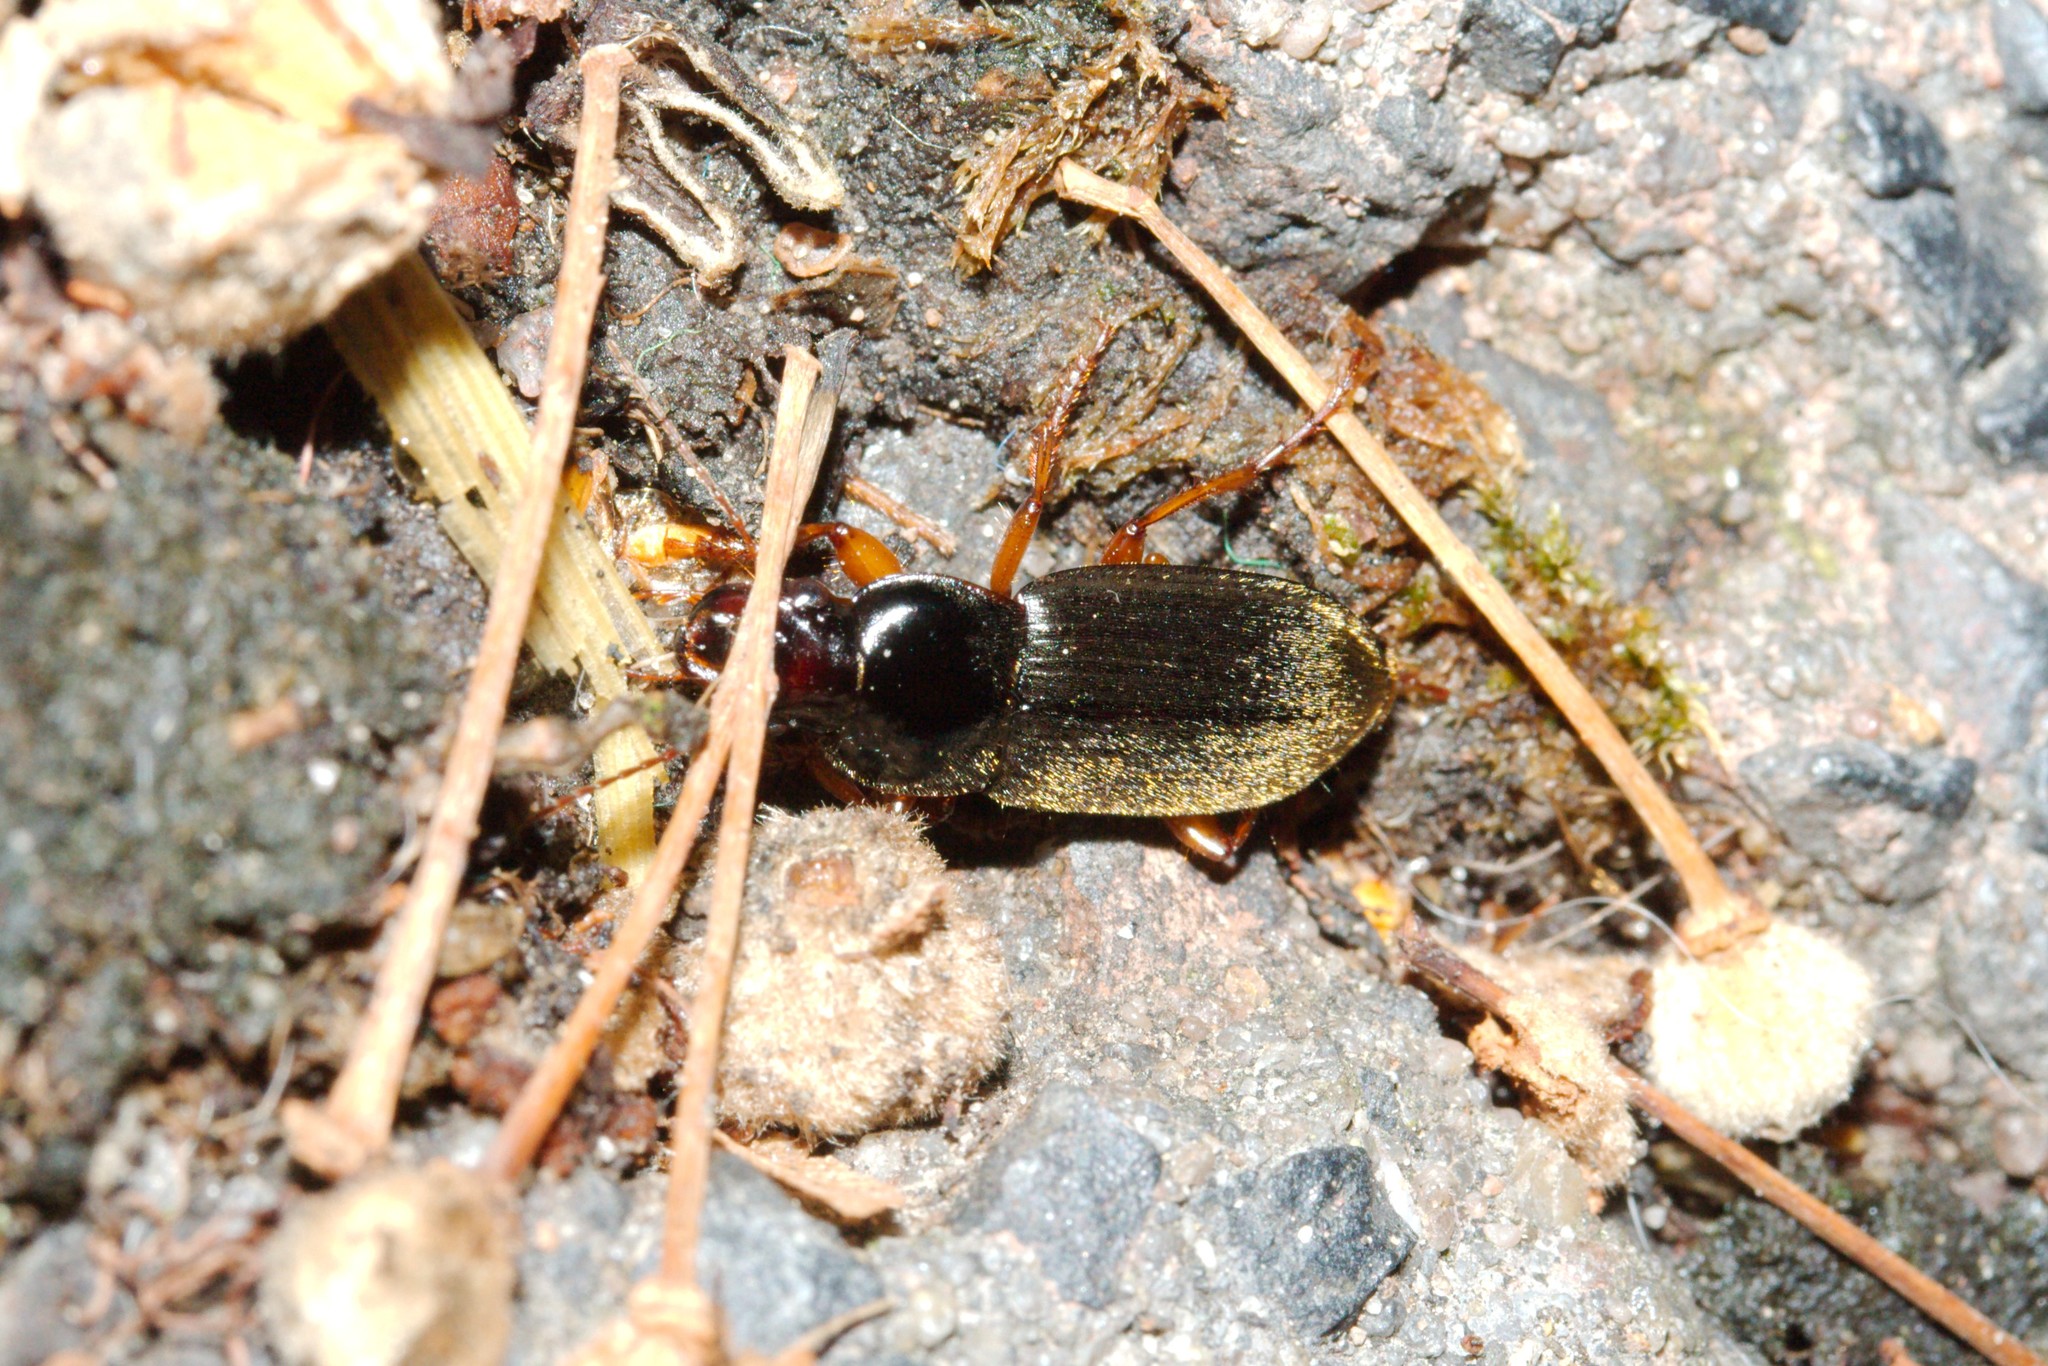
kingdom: Animalia
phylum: Arthropoda
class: Insecta
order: Coleoptera
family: Carabidae
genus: Harpalus
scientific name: Harpalus rufipes
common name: Strawberry harp ground beetle
